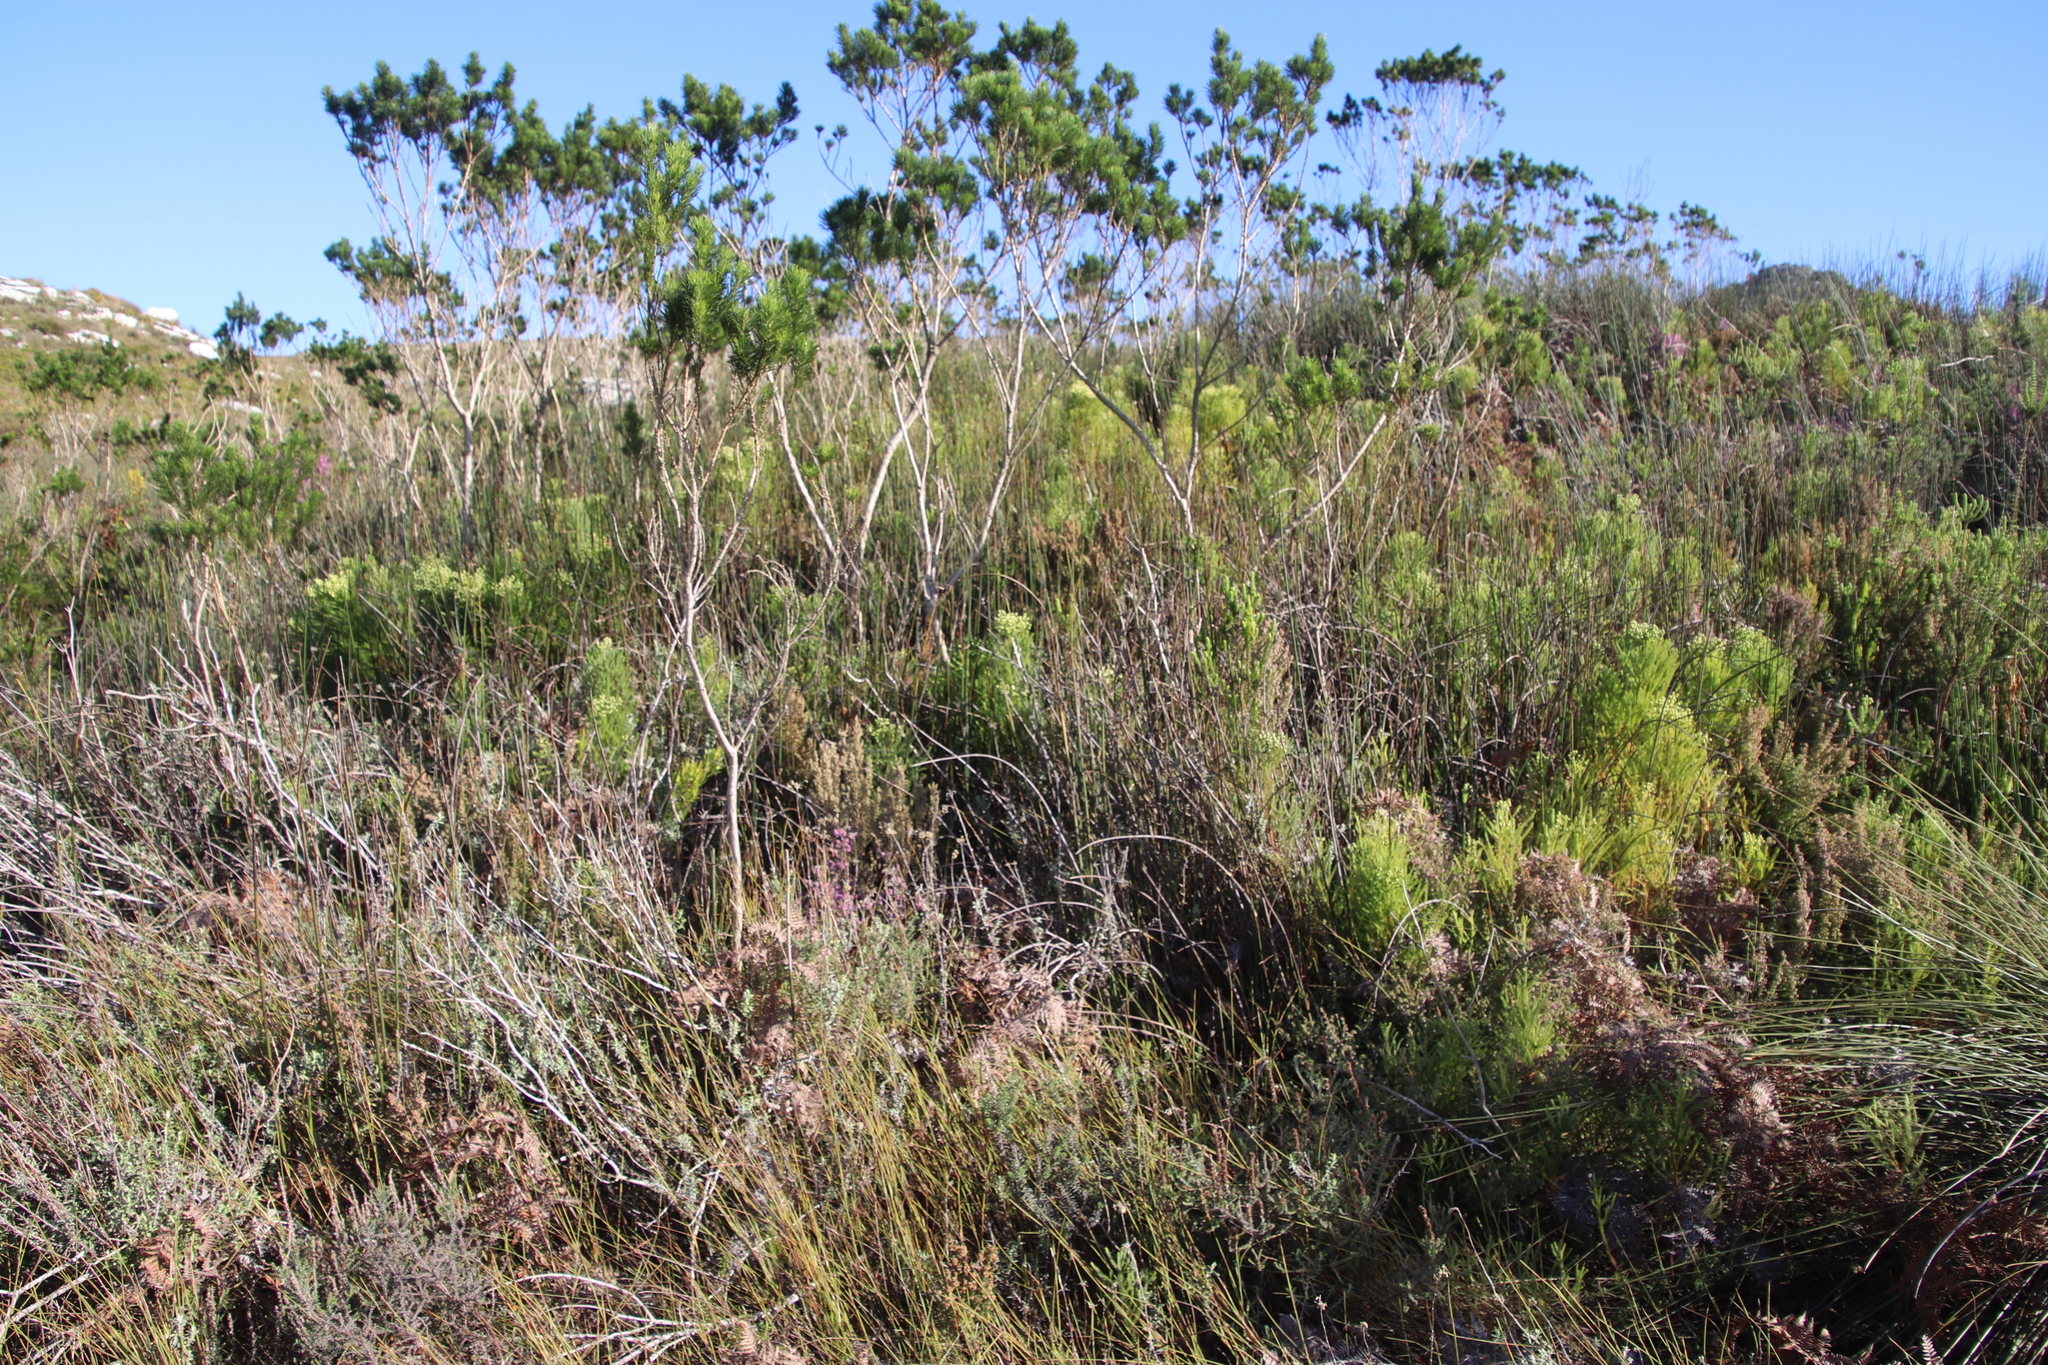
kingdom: Plantae
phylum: Tracheophyta
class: Magnoliopsida
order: Fabales
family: Fabaceae
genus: Psoralea
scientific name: Psoralea pinnata
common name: African scurfpea
